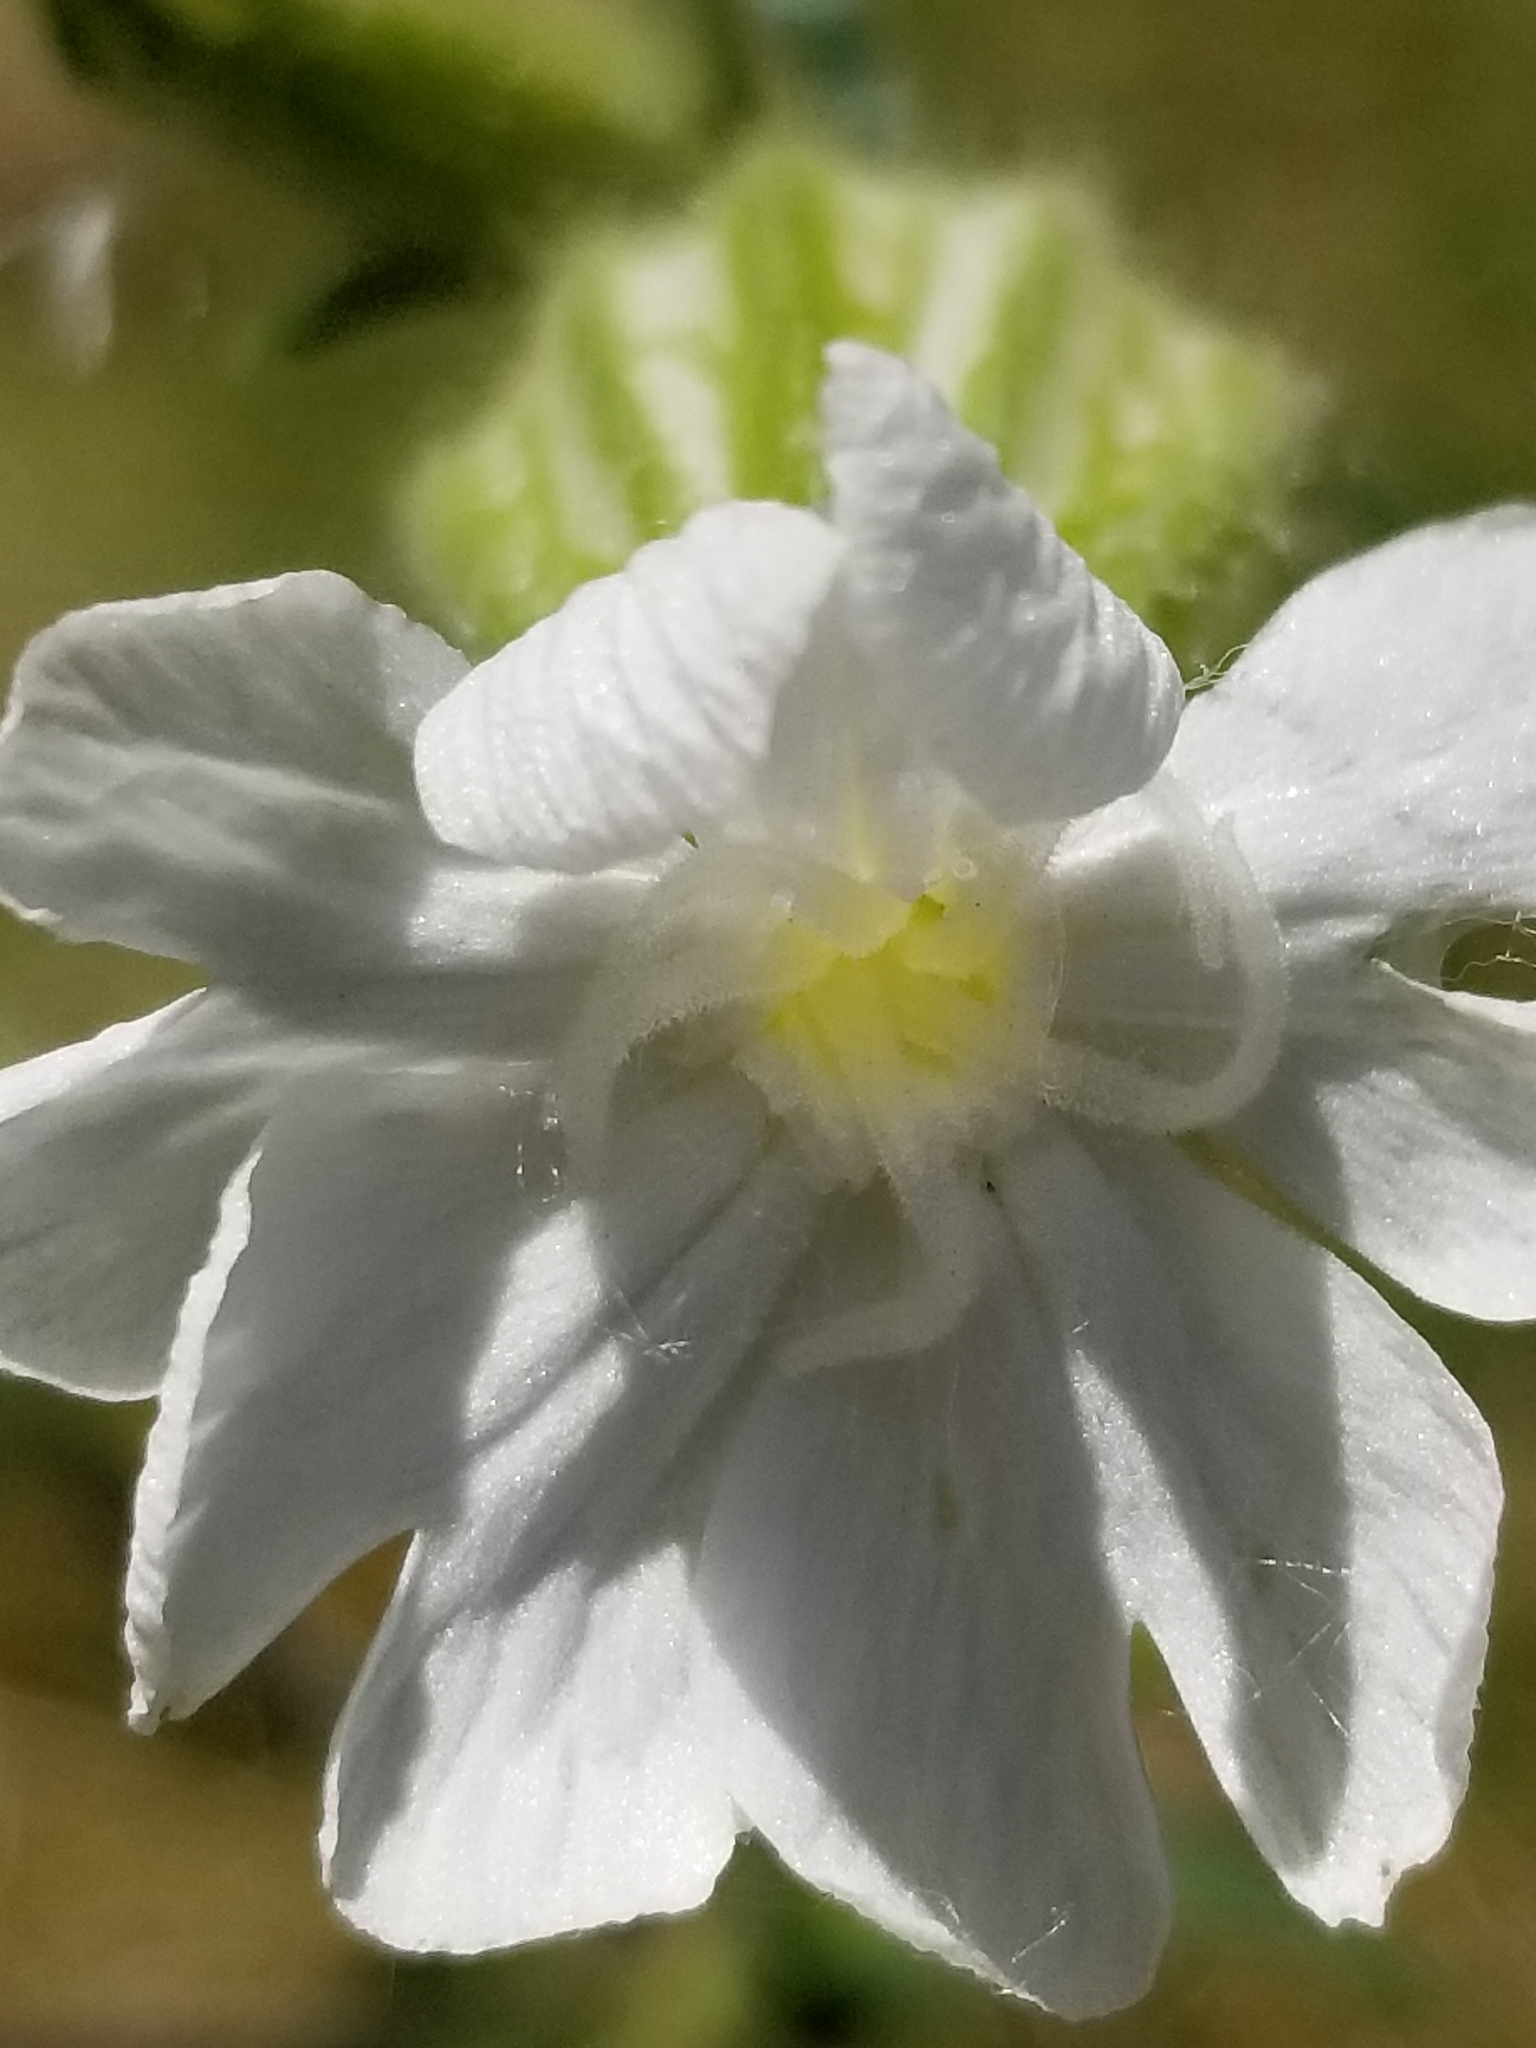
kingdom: Plantae
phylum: Tracheophyta
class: Magnoliopsida
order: Caryophyllales
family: Caryophyllaceae
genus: Silene
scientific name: Silene latifolia
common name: White campion
